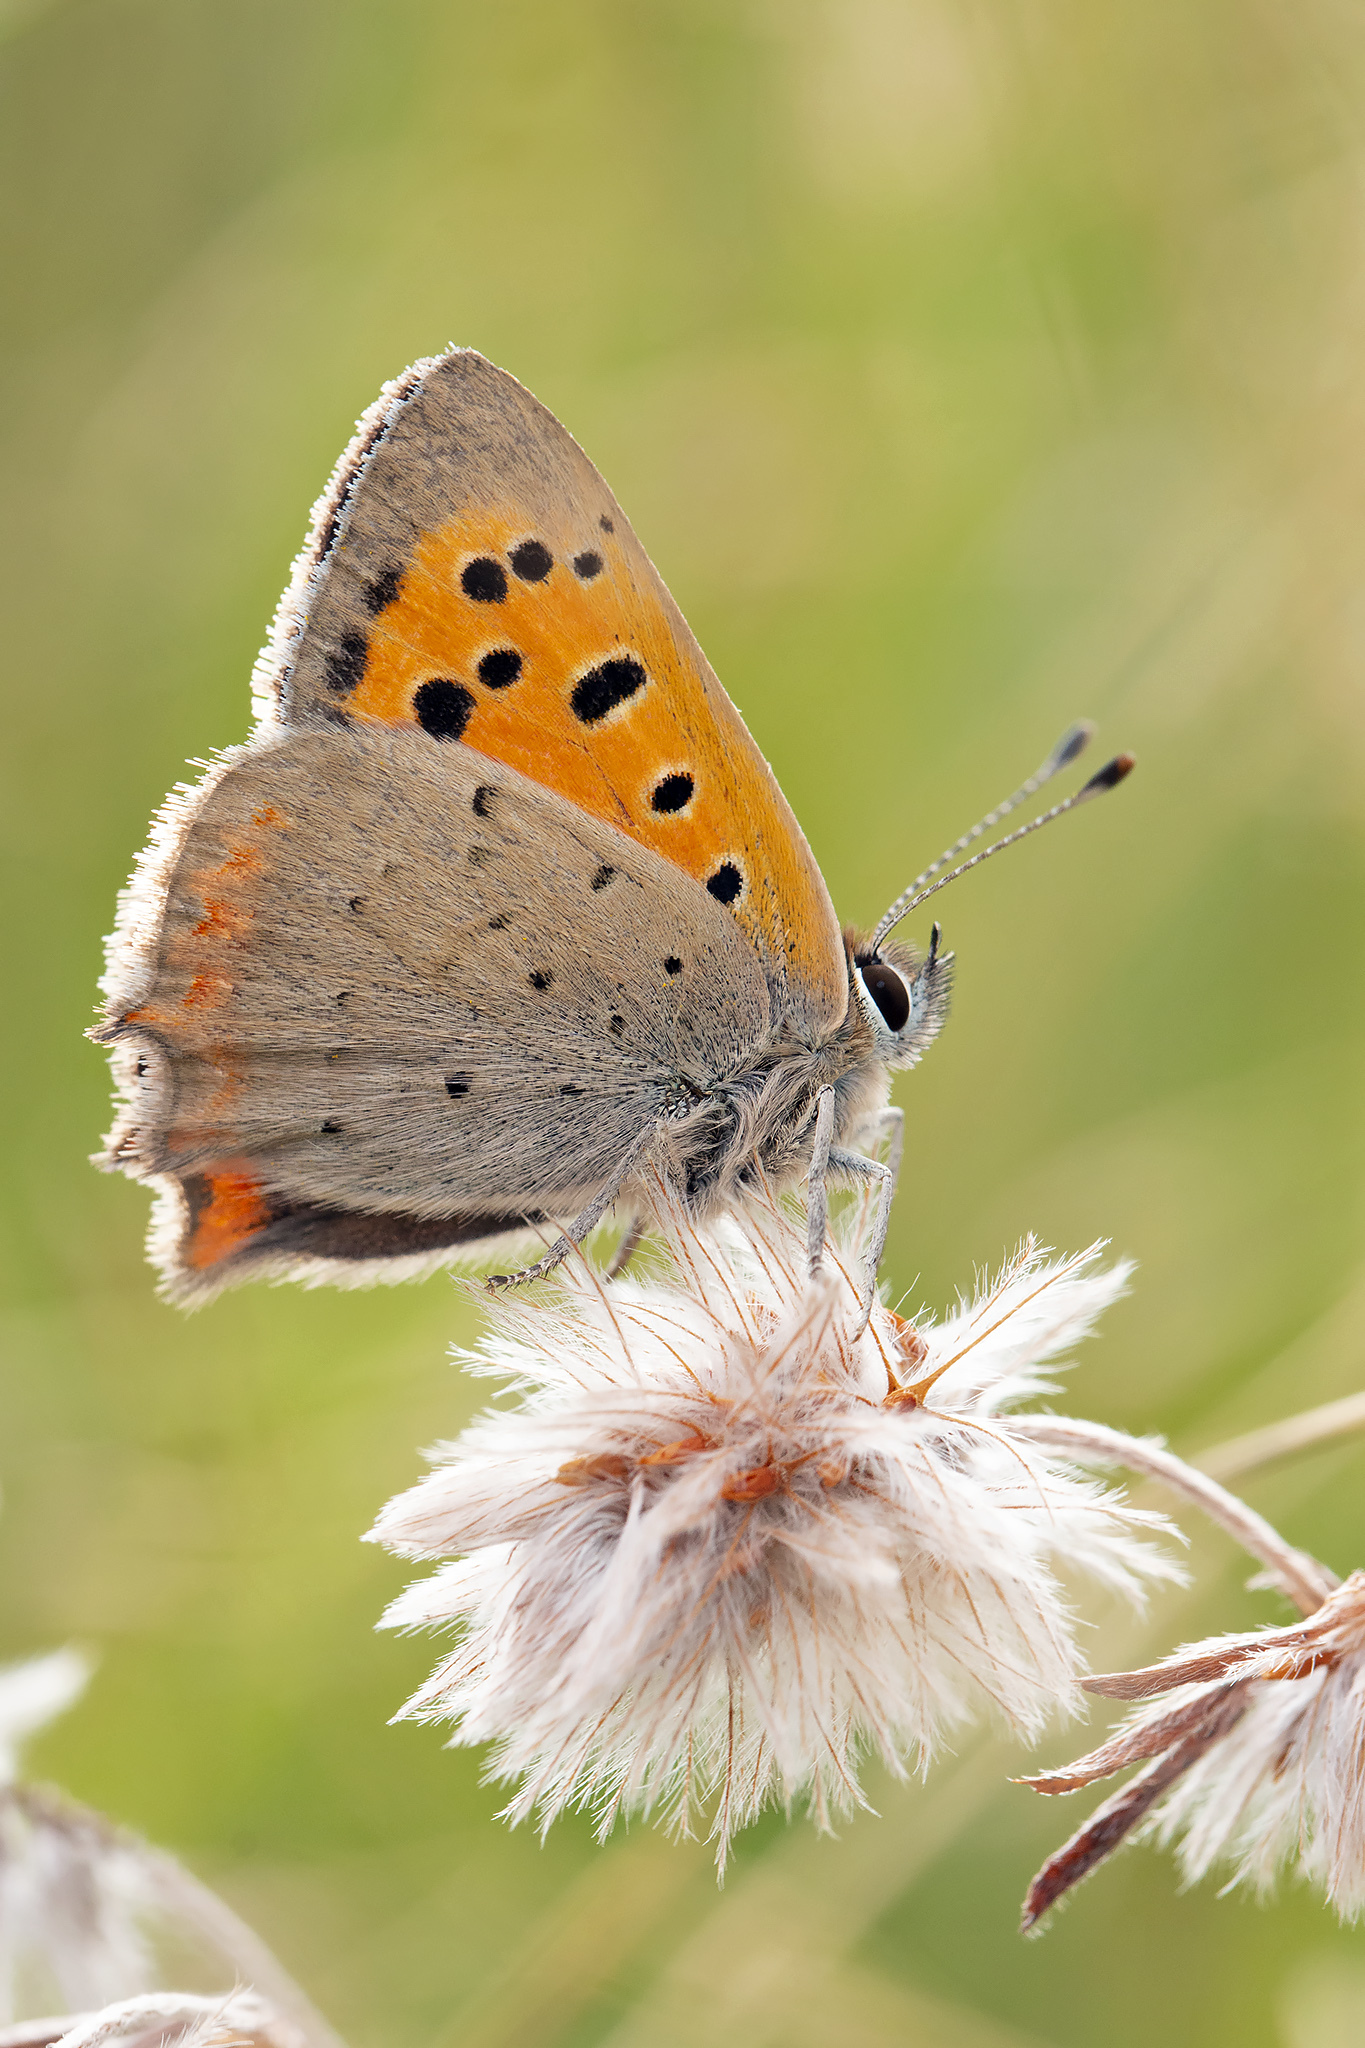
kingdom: Animalia
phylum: Arthropoda
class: Insecta
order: Lepidoptera
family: Lycaenidae
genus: Lycaena
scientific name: Lycaena phlaeas
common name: Small copper
